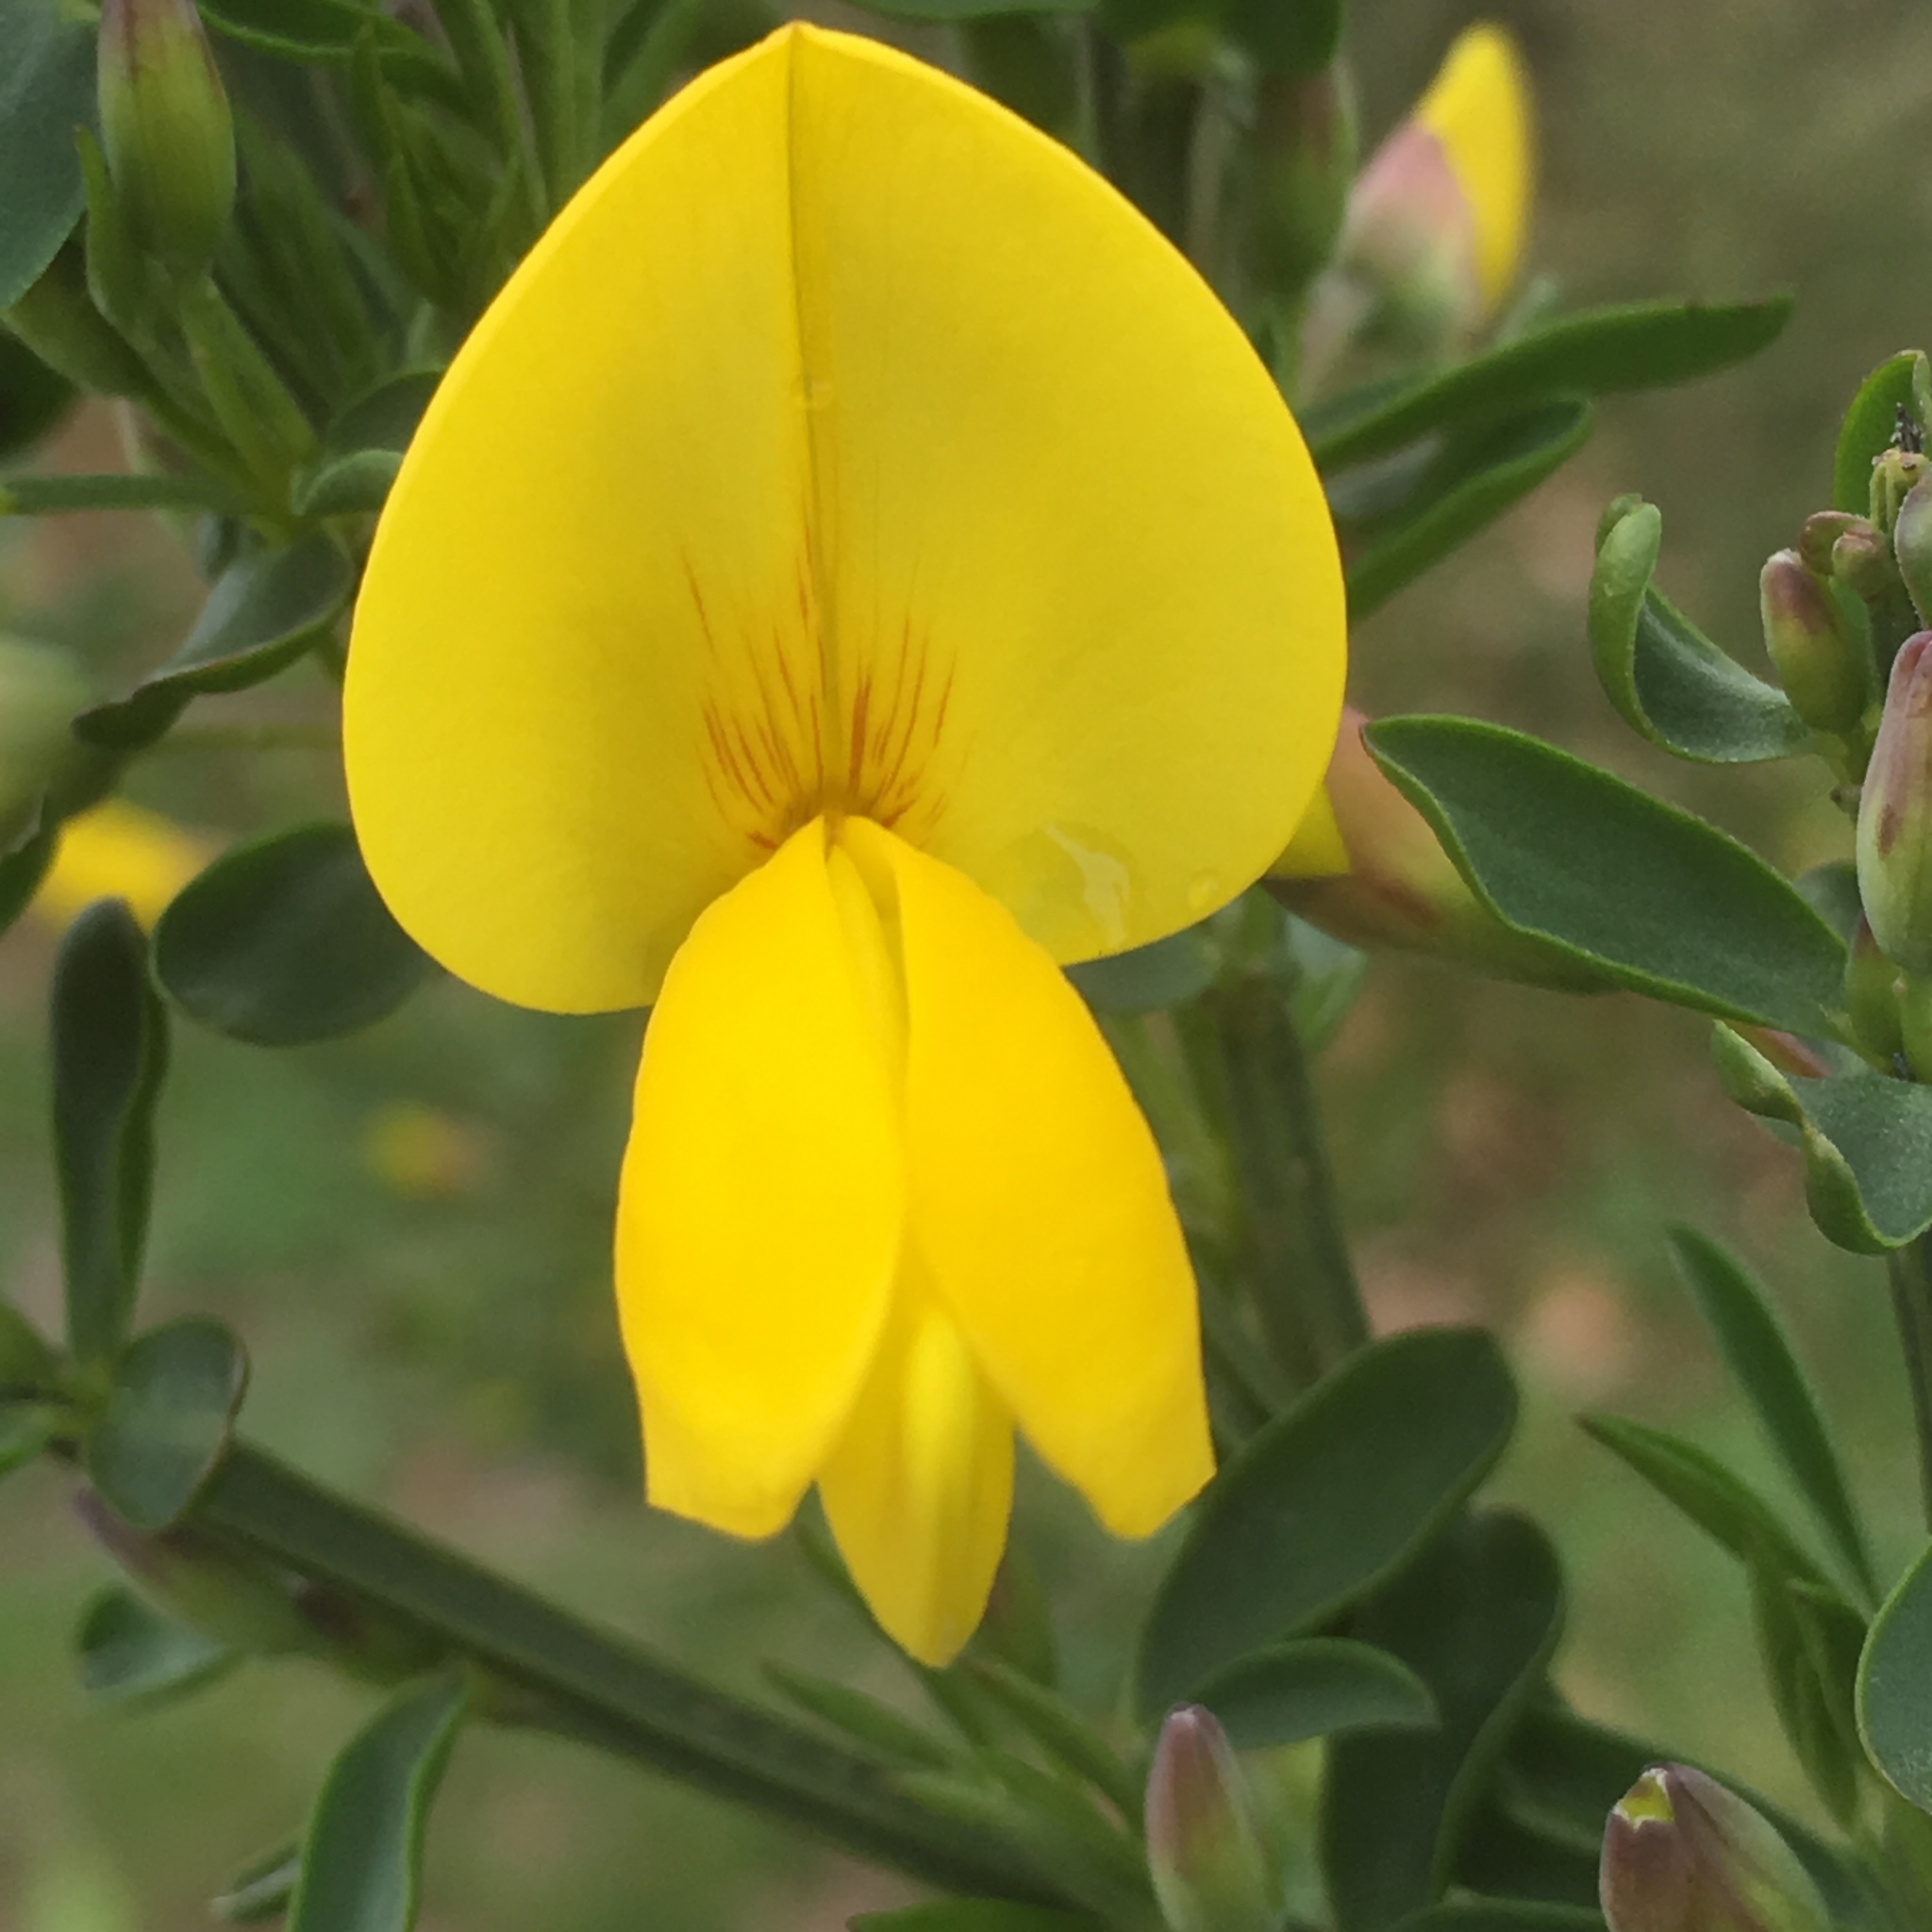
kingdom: Plantae
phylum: Tracheophyta
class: Magnoliopsida
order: Fabales
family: Fabaceae
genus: Cytisus
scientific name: Cytisus scoparius
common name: Scotch broom
